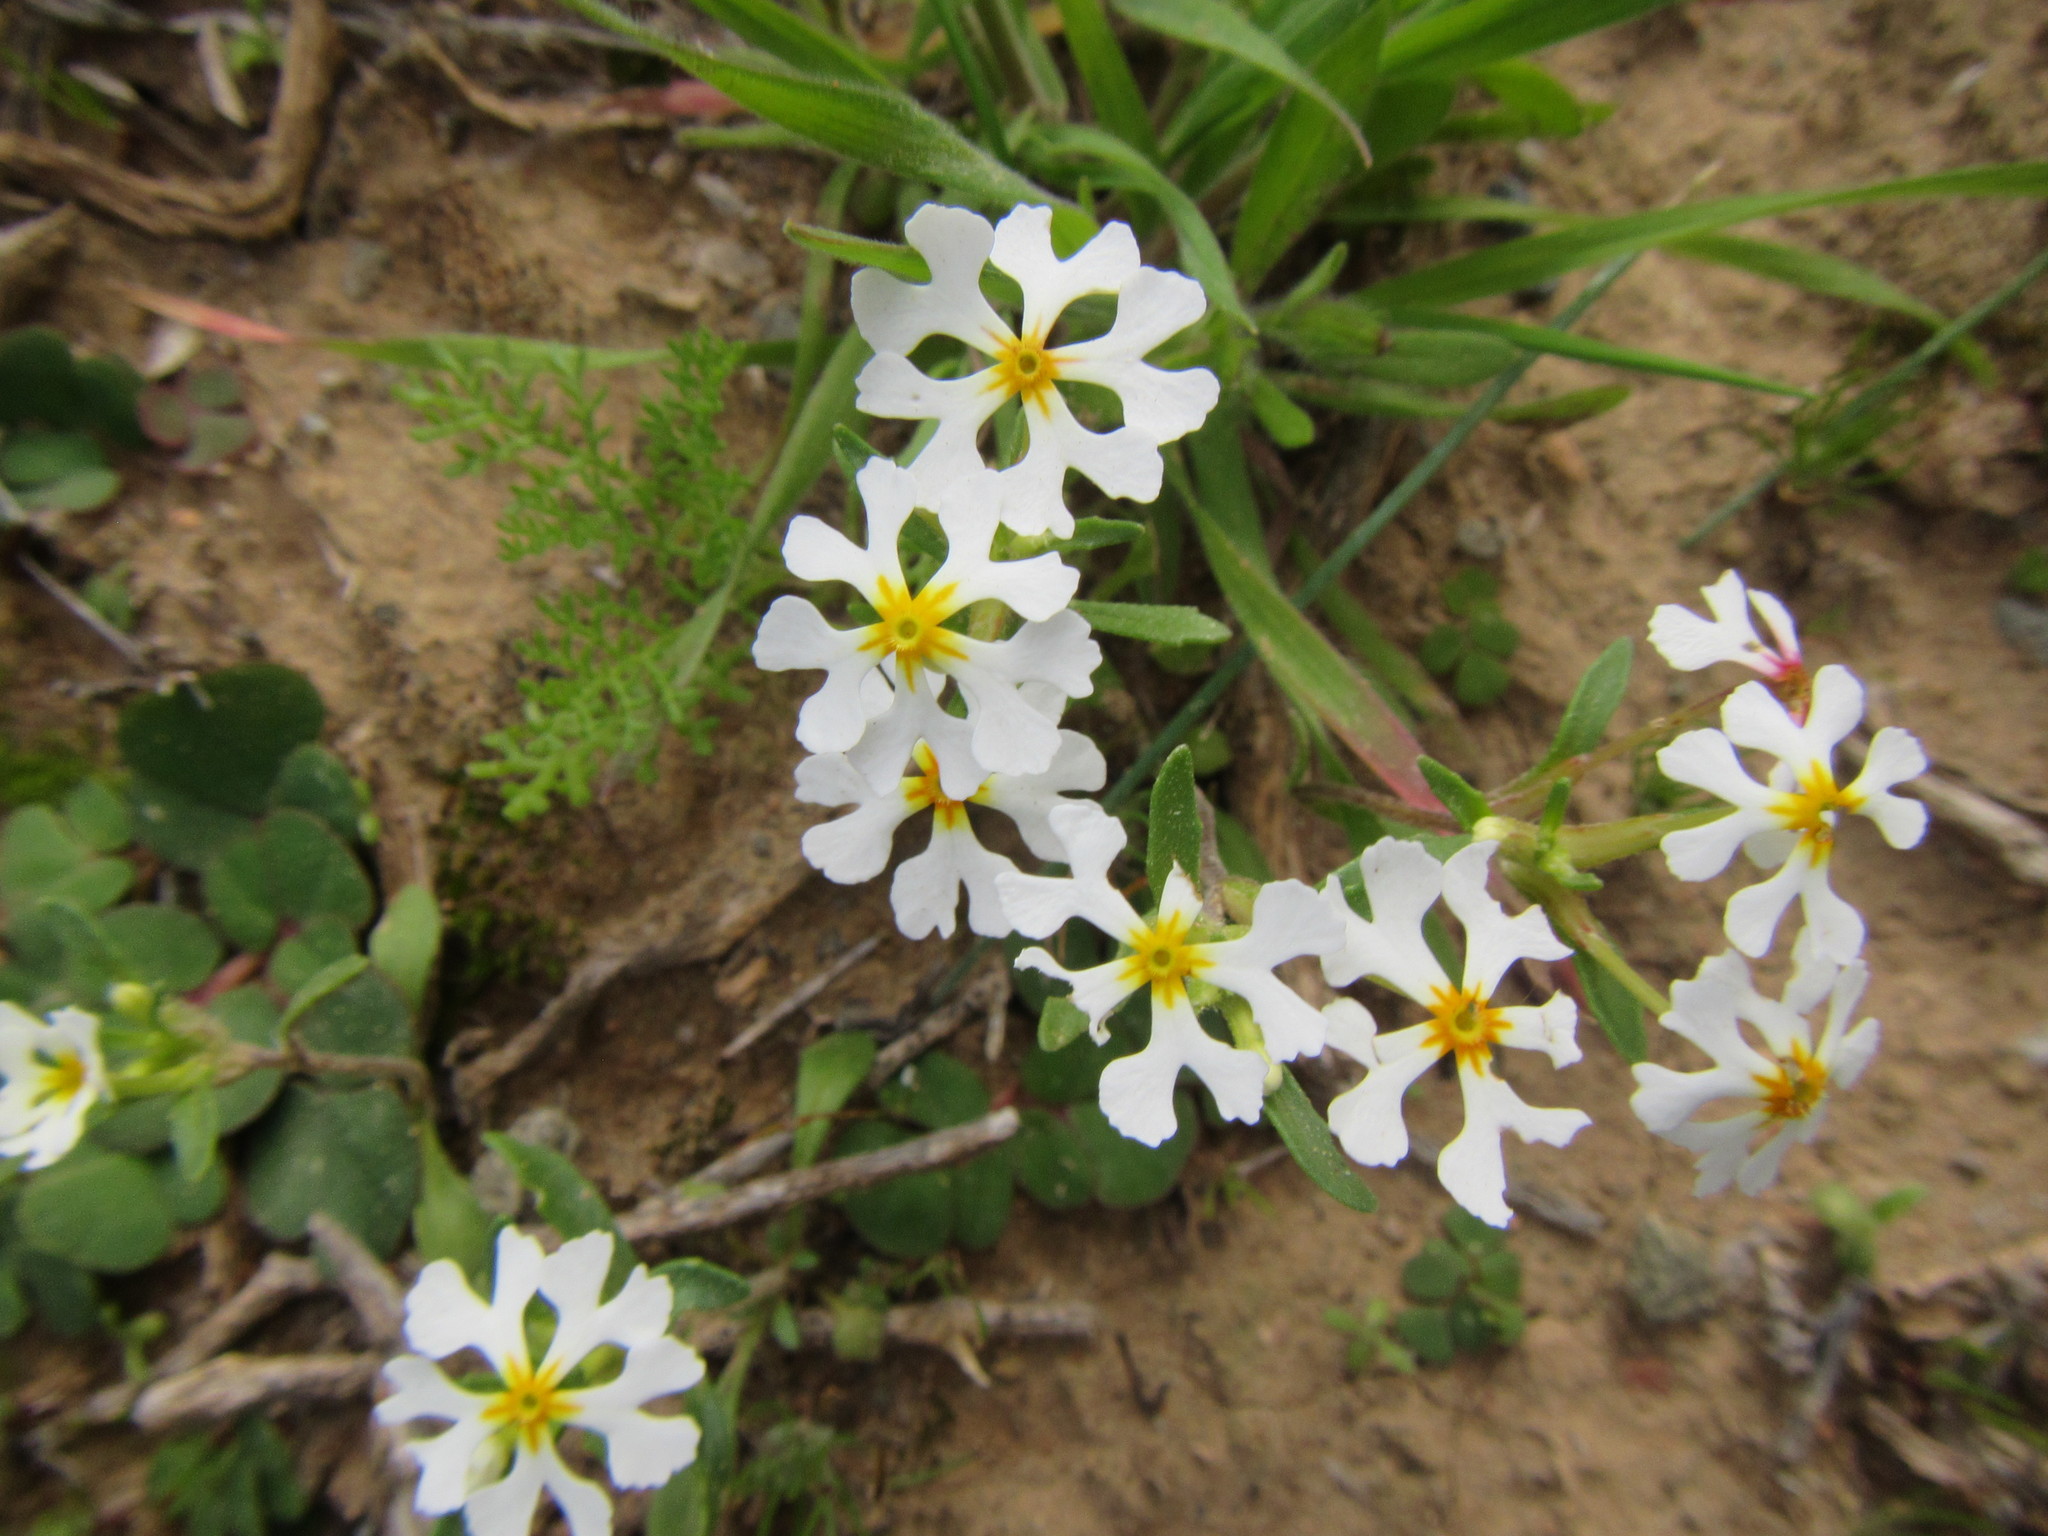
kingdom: Plantae
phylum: Tracheophyta
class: Magnoliopsida
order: Lamiales
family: Scrophulariaceae
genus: Zaluzianskya
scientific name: Zaluzianskya affinis
